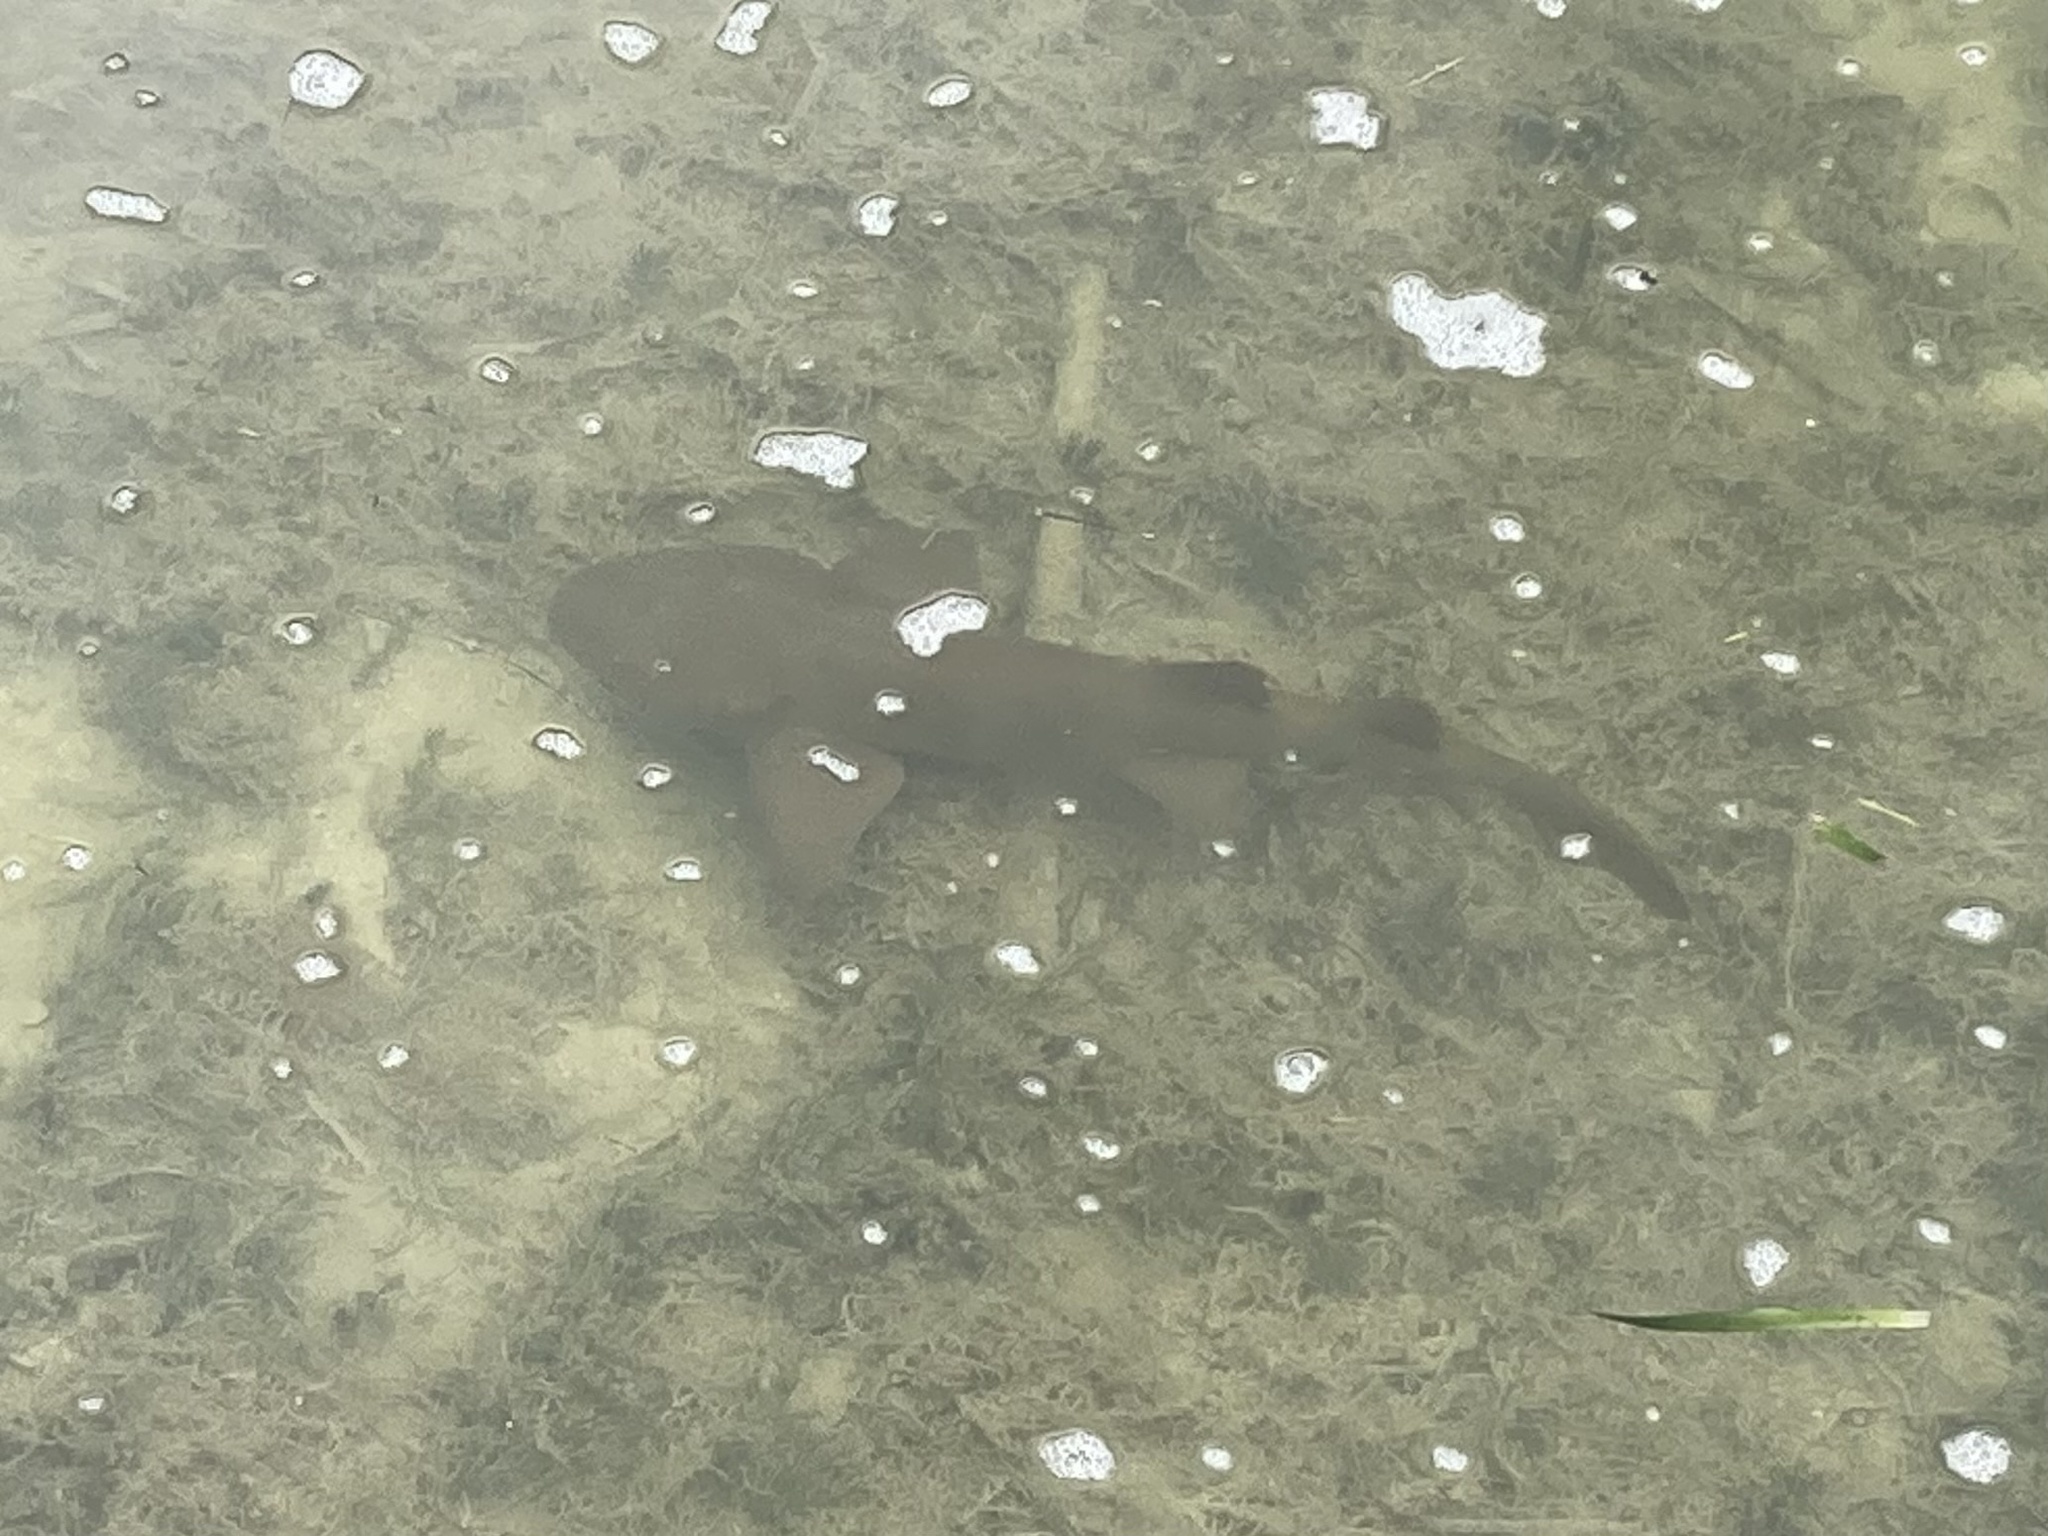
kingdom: Animalia
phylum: Chordata
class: Elasmobranchii
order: Orectolobiformes
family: Ginglymostomatidae
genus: Ginglymostoma
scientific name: Ginglymostoma cirratum
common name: Nurse shark
